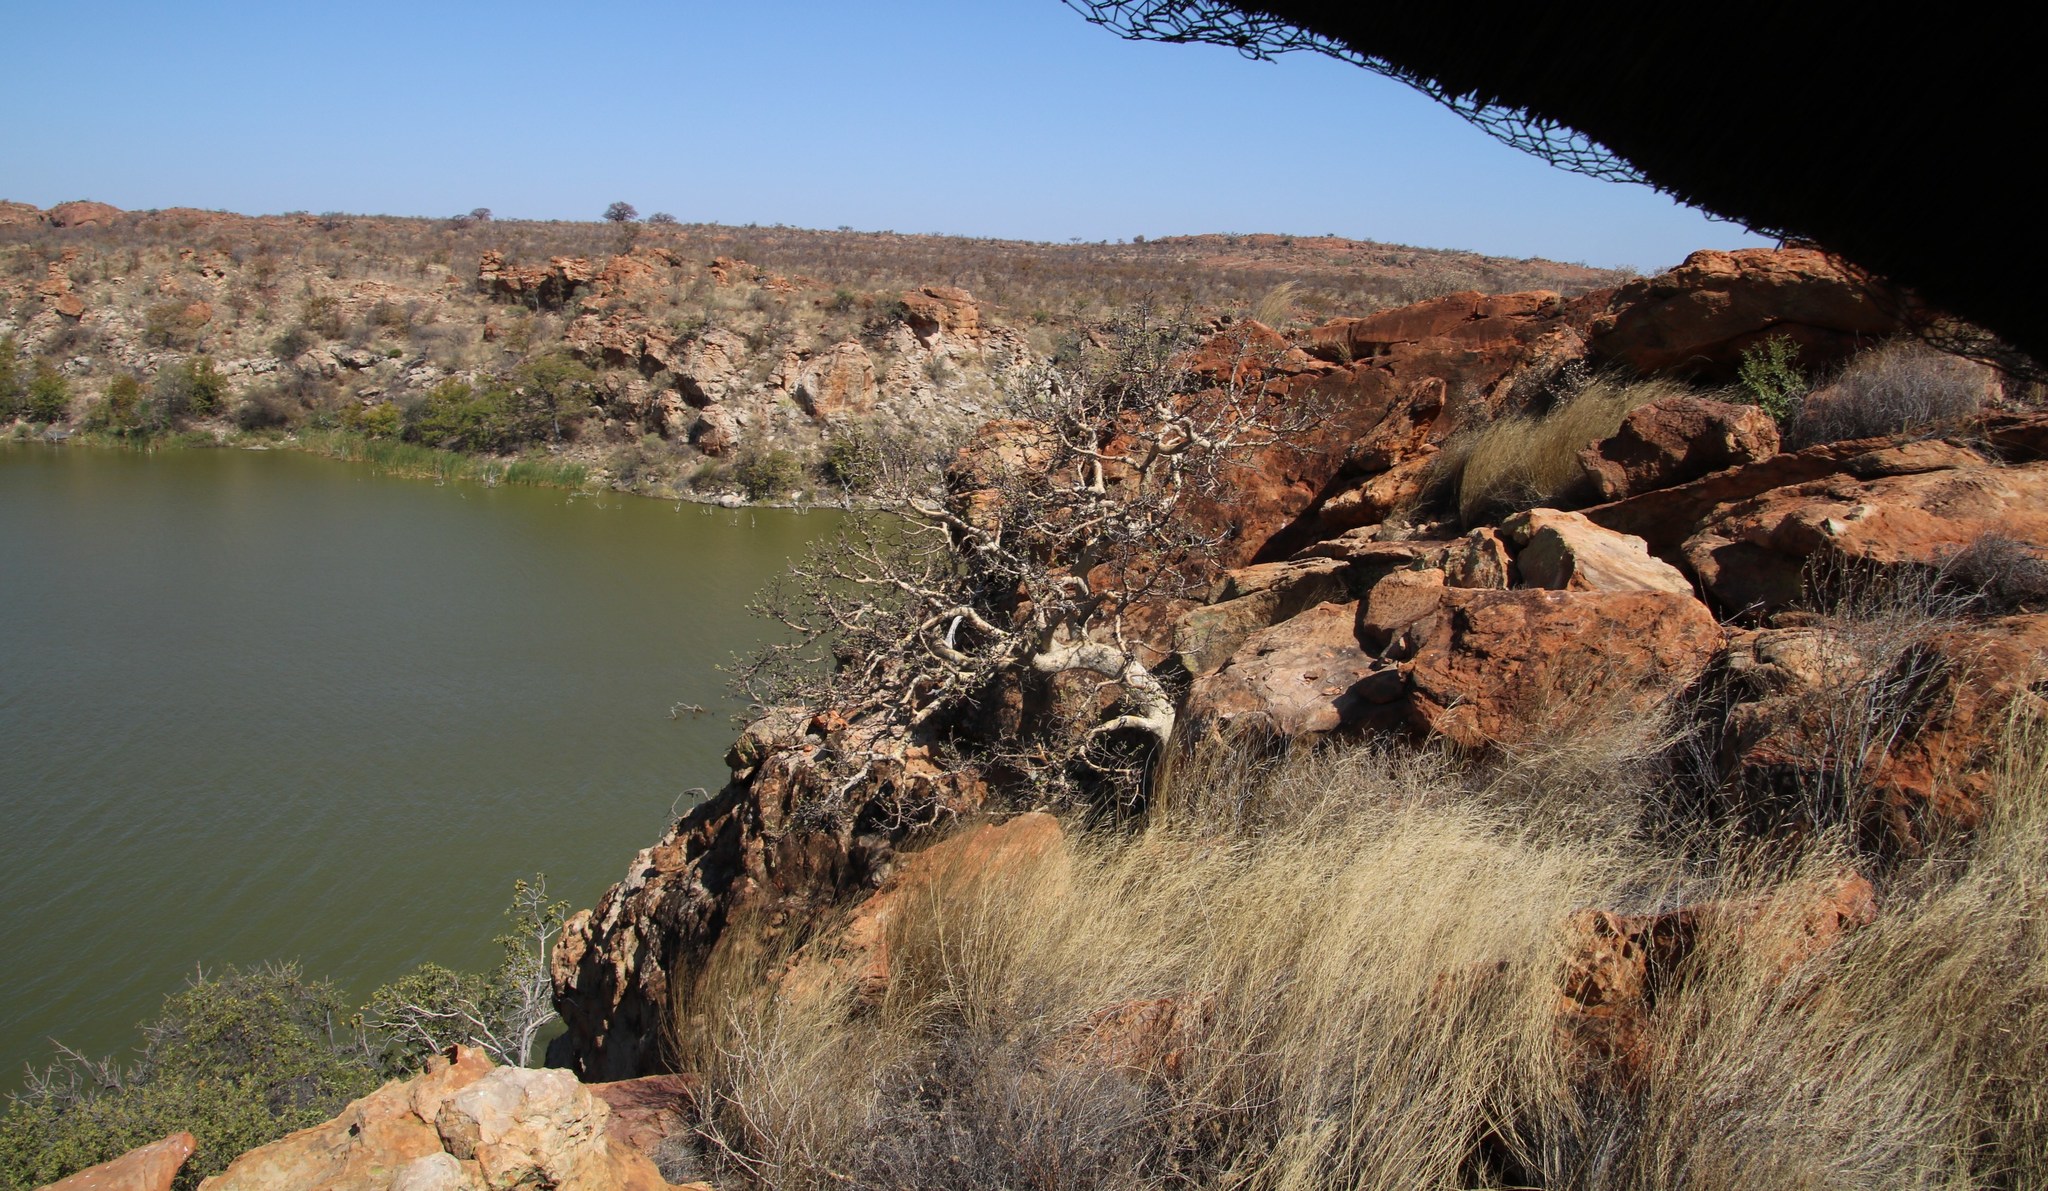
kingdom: Plantae
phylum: Tracheophyta
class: Magnoliopsida
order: Rosales
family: Moraceae
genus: Ficus
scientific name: Ficus abutilifolia
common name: Large-leaved rock fig
